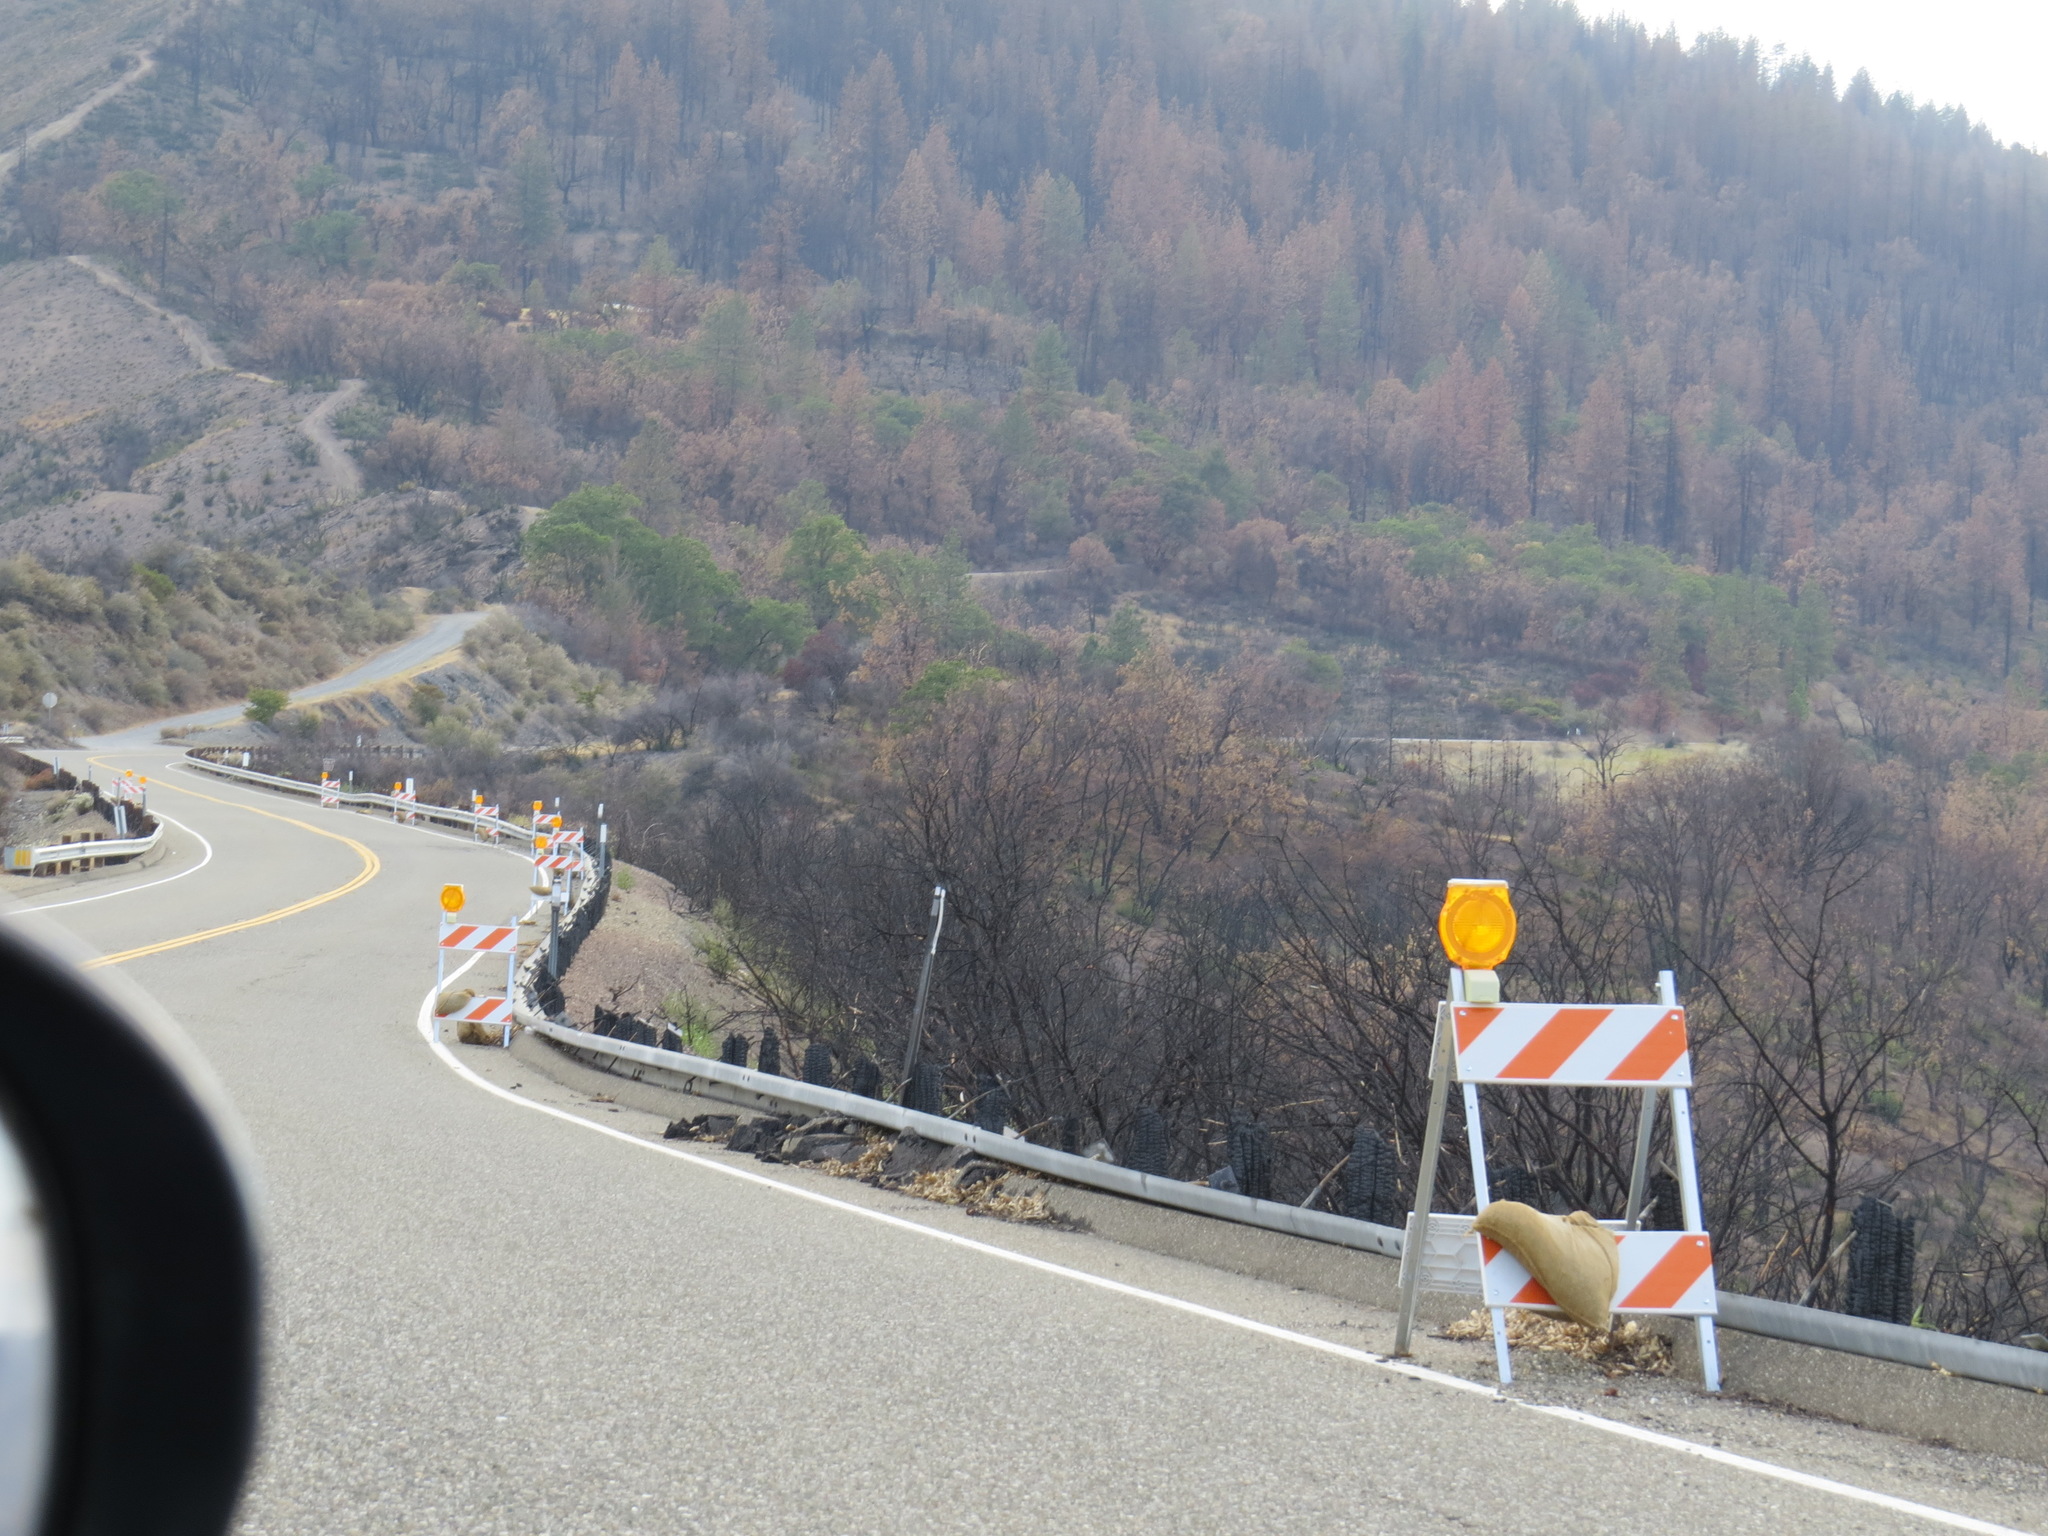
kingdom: Plantae
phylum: Tracheophyta
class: Magnoliopsida
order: Fagales
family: Fagaceae
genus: Quercus
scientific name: Quercus garryana
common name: Garry oak
